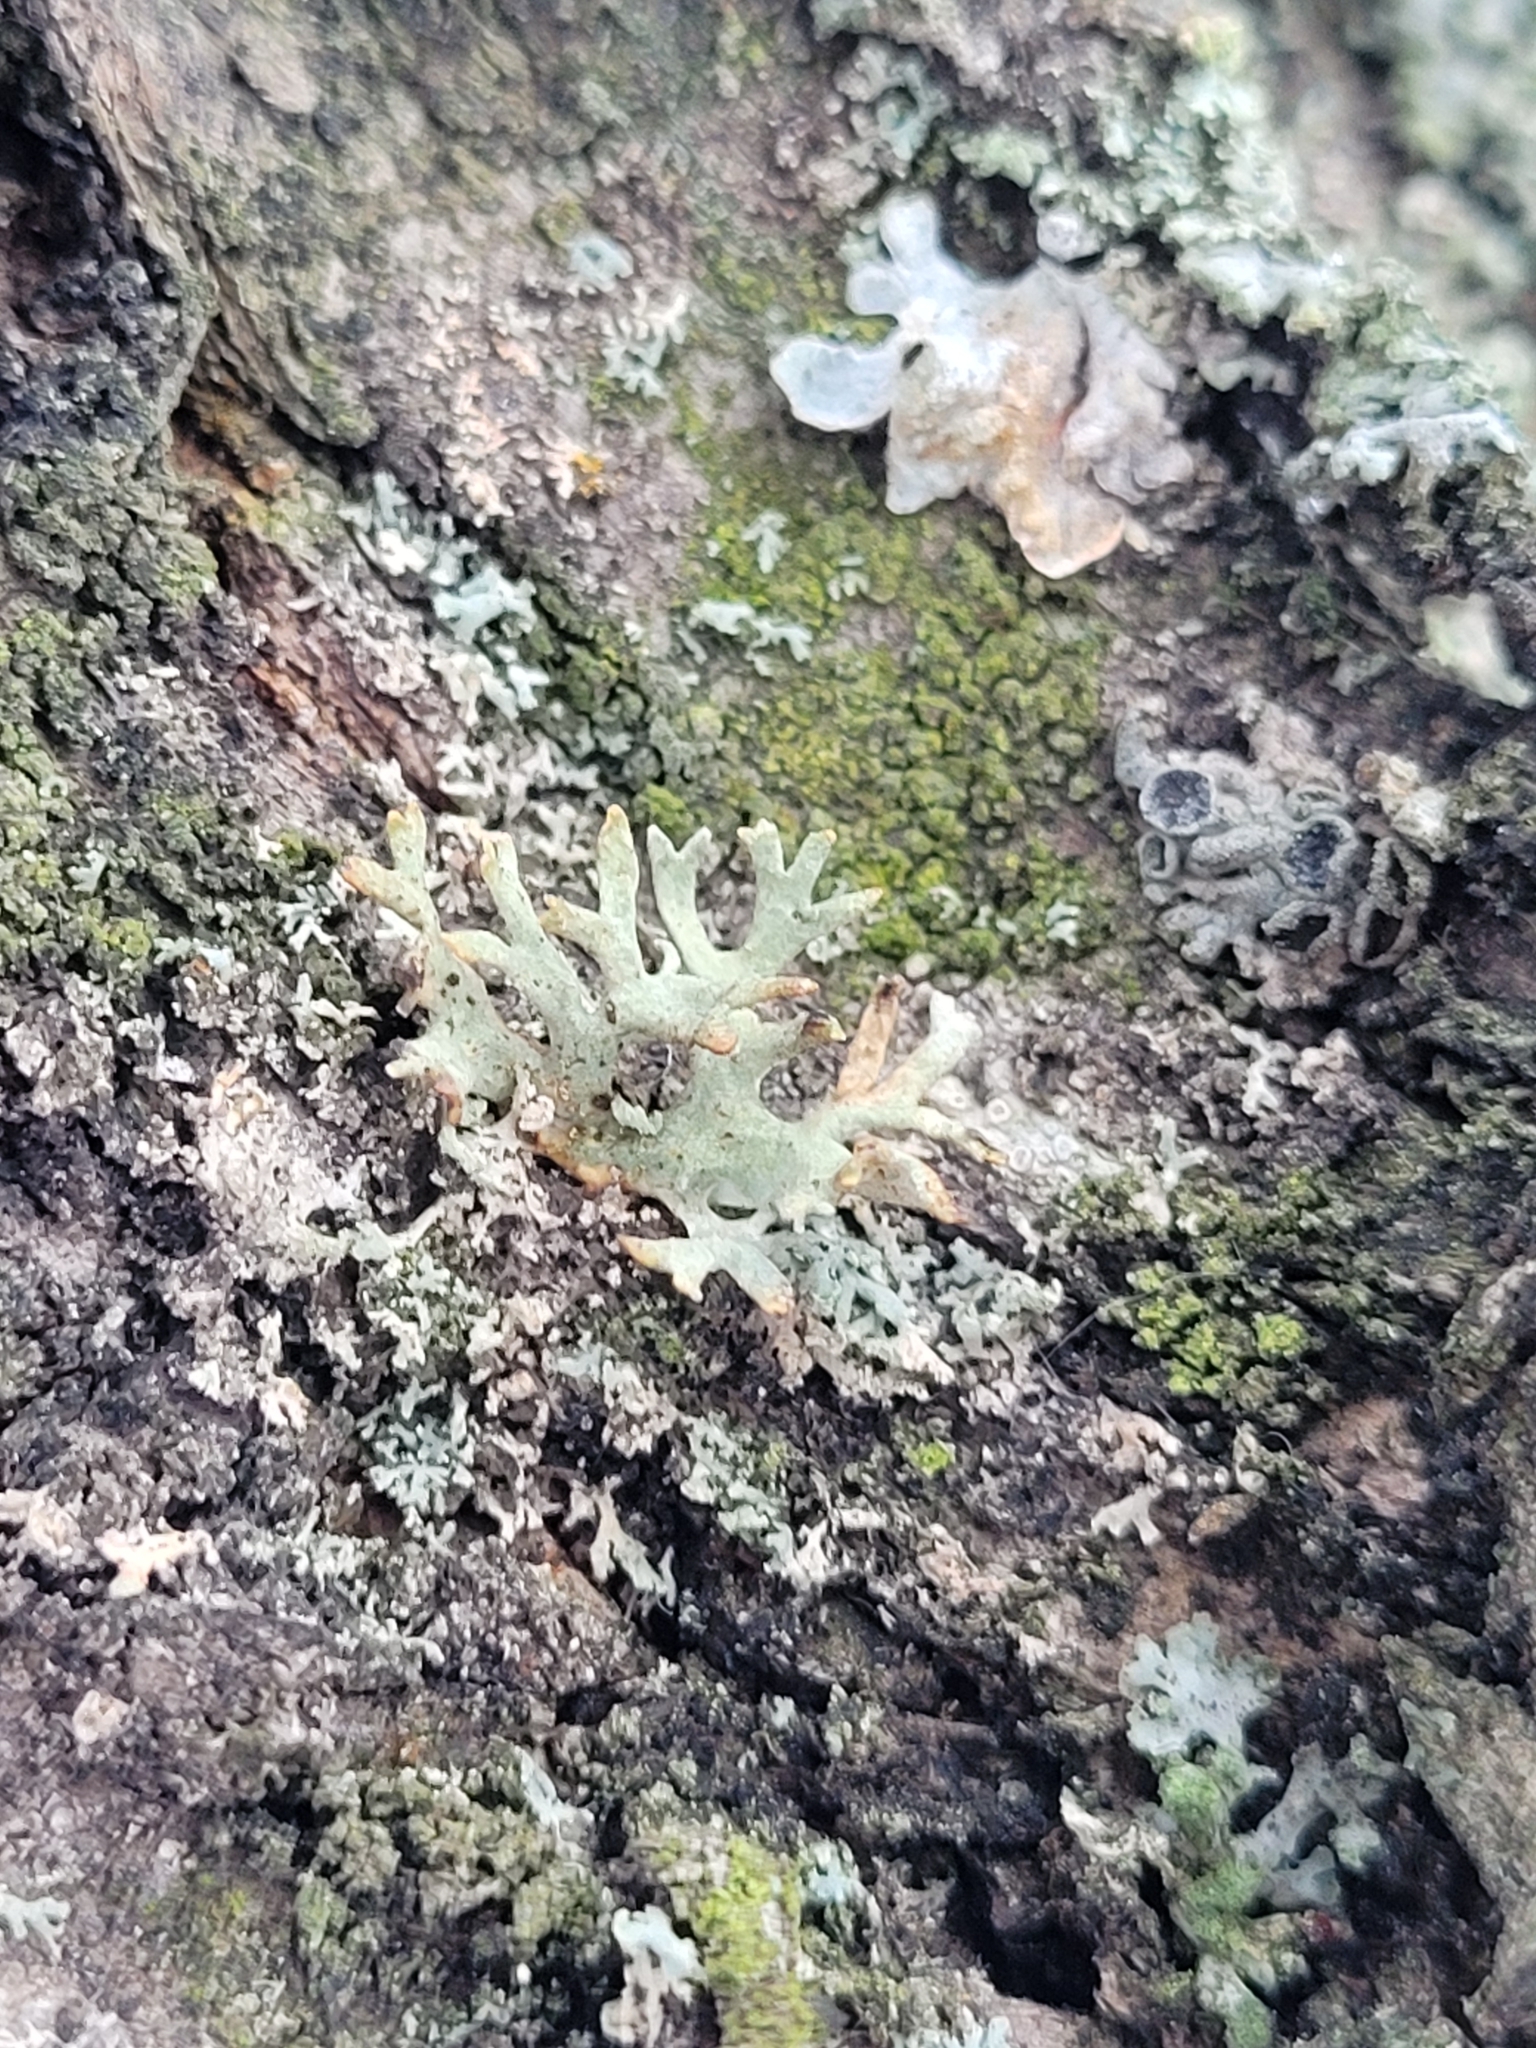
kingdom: Fungi
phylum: Ascomycota
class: Lecanoromycetes
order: Lecanorales
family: Parmeliaceae
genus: Evernia
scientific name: Evernia prunastri
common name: Oak moss
